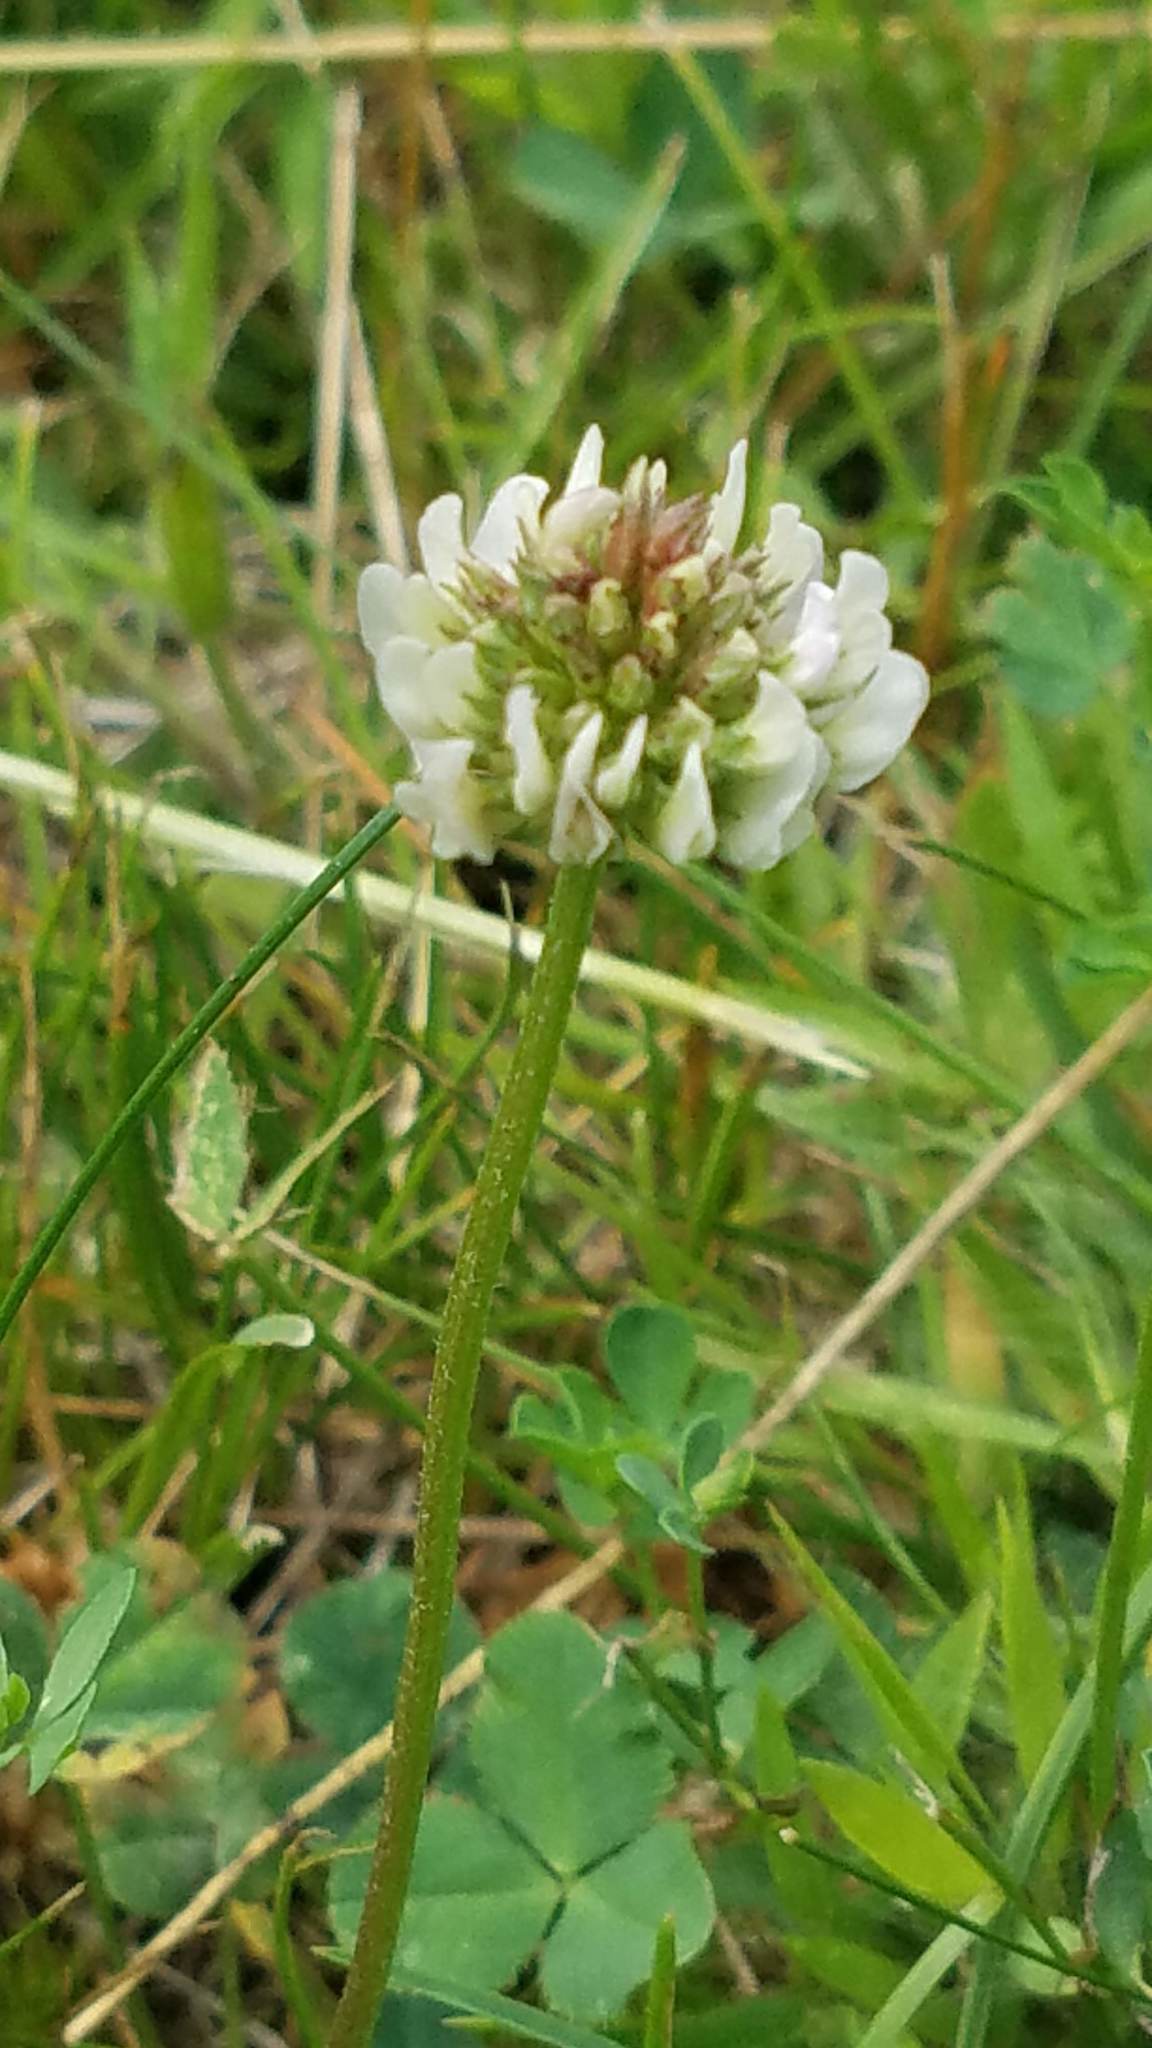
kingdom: Plantae
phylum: Tracheophyta
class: Magnoliopsida
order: Fabales
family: Fabaceae
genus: Trifolium
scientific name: Trifolium repens
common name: White clover
